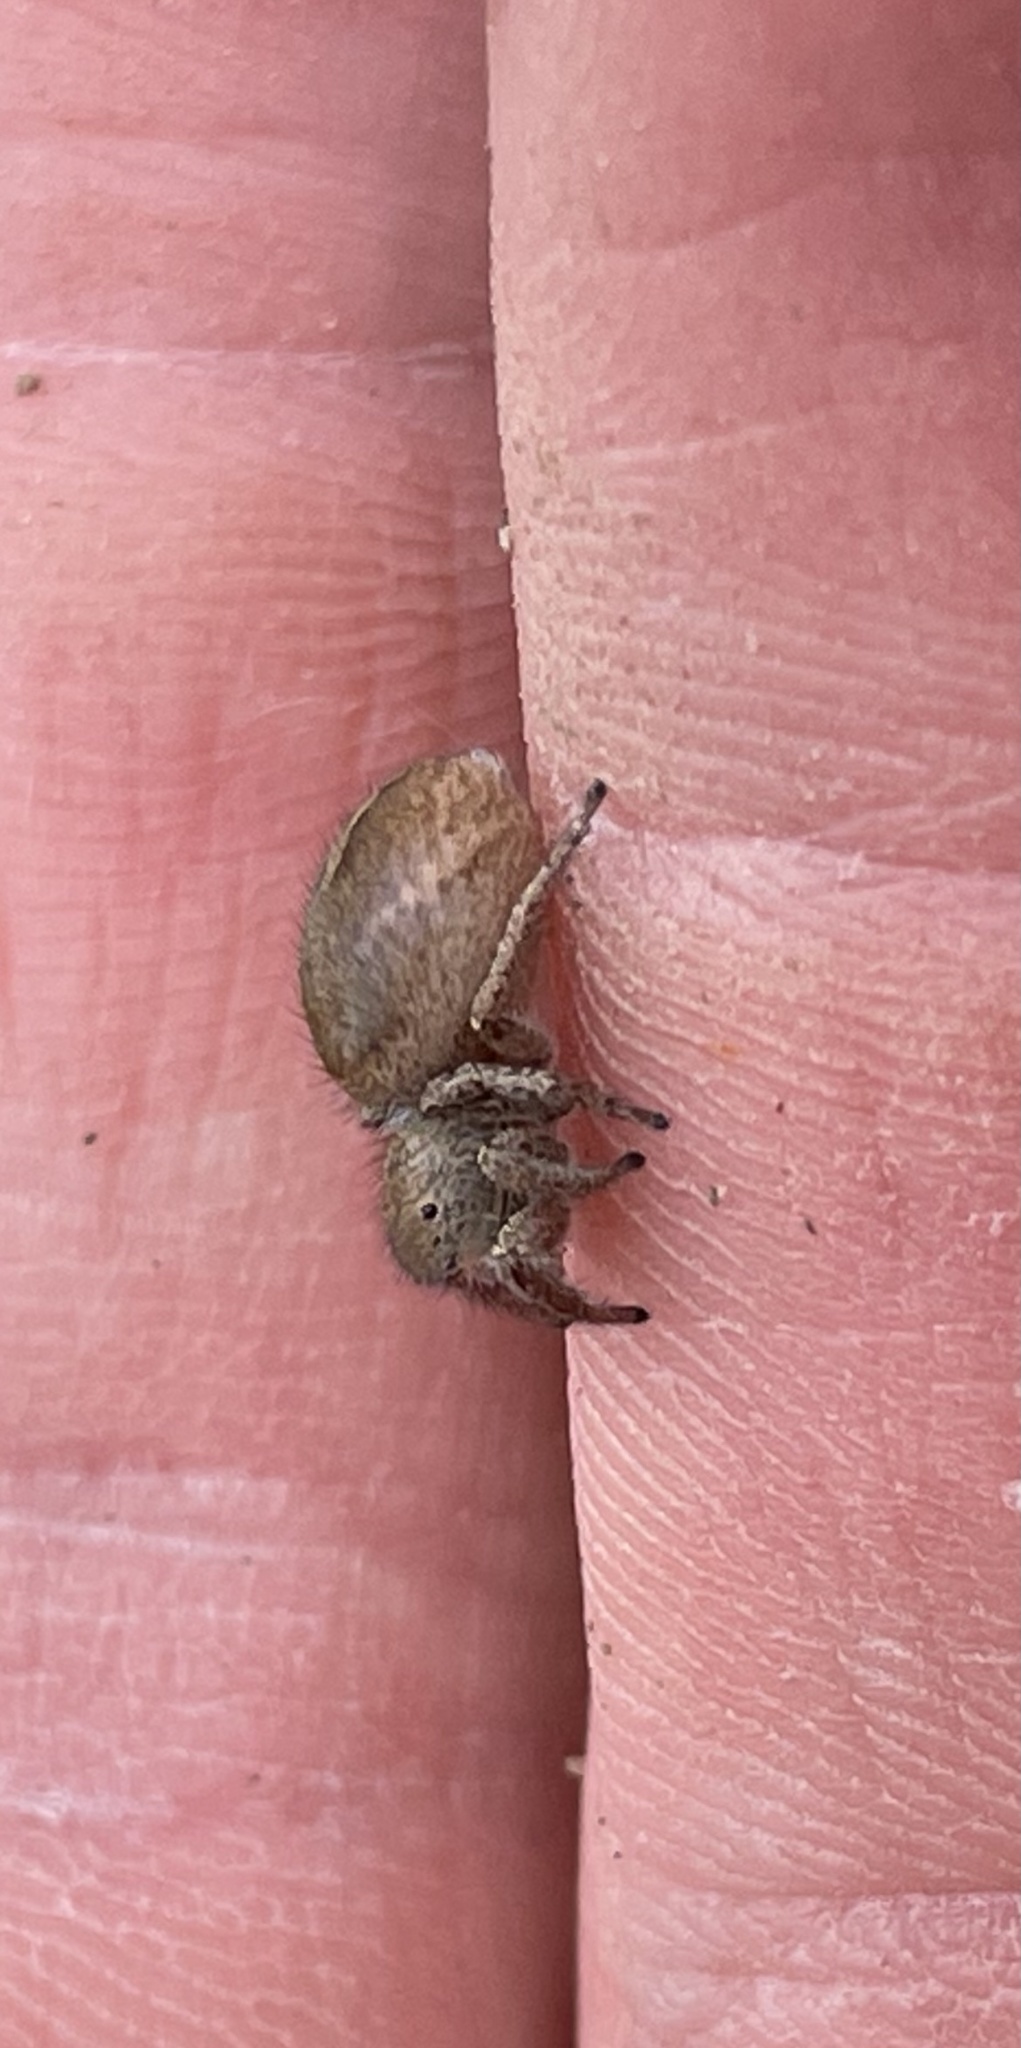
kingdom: Animalia
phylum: Arthropoda
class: Arachnida
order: Araneae
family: Salticidae
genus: Habronattus
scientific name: Habronattus festus
